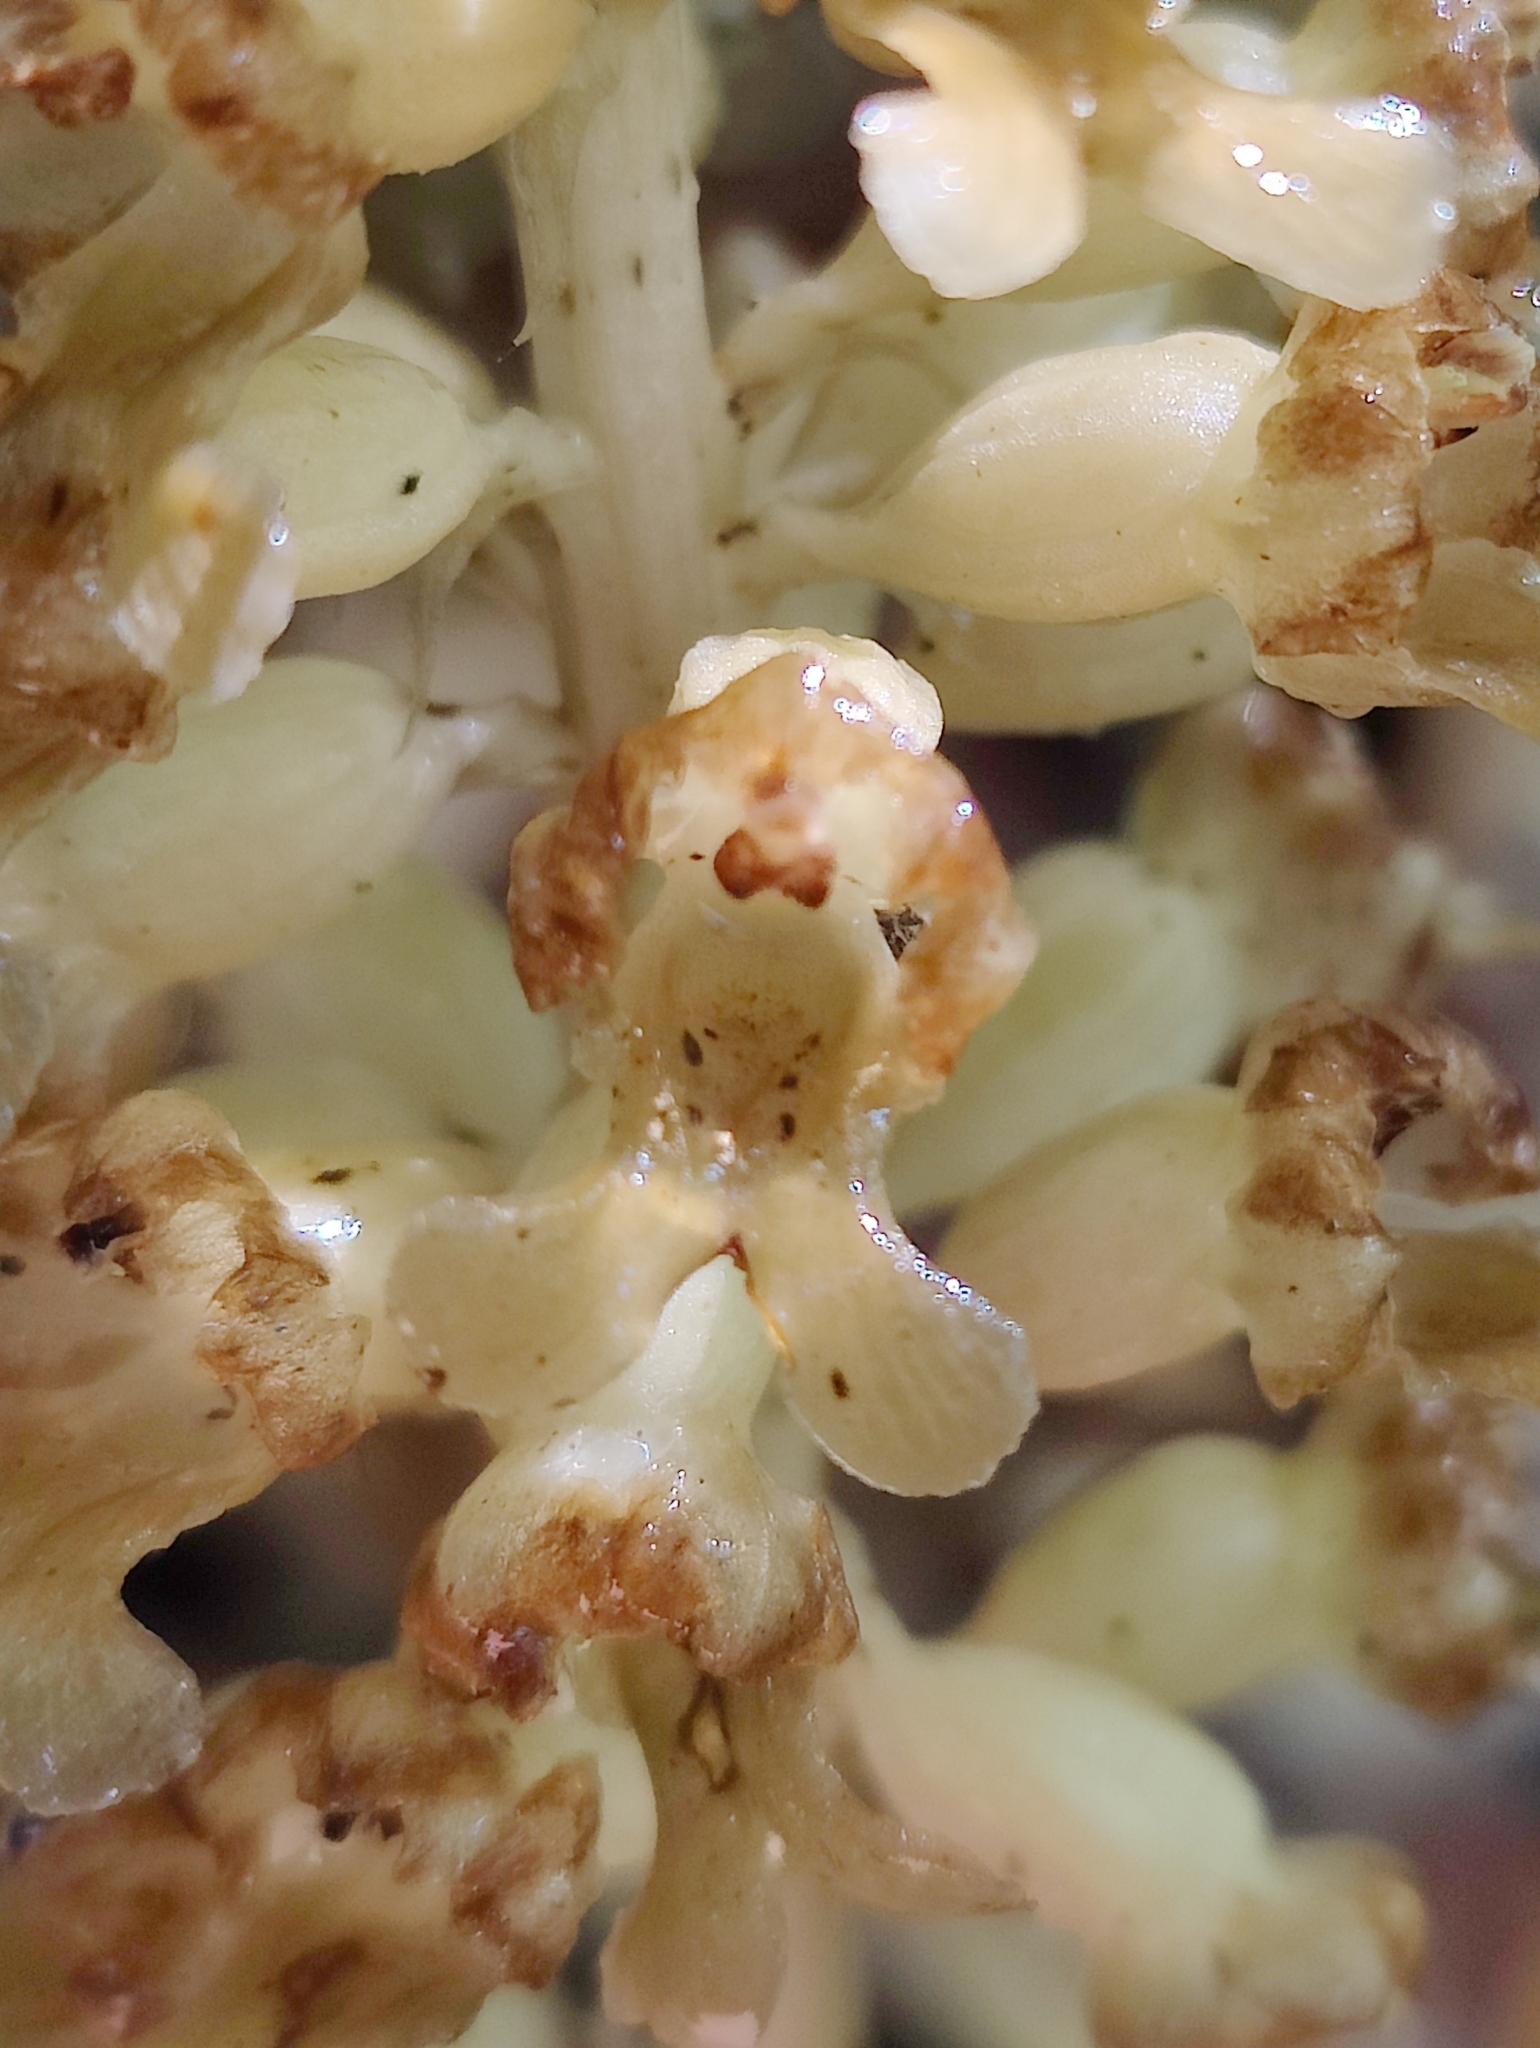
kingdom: Plantae
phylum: Tracheophyta
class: Liliopsida
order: Asparagales
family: Orchidaceae
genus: Neottia
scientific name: Neottia nidus-avis
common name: Bird's-nest orchid
